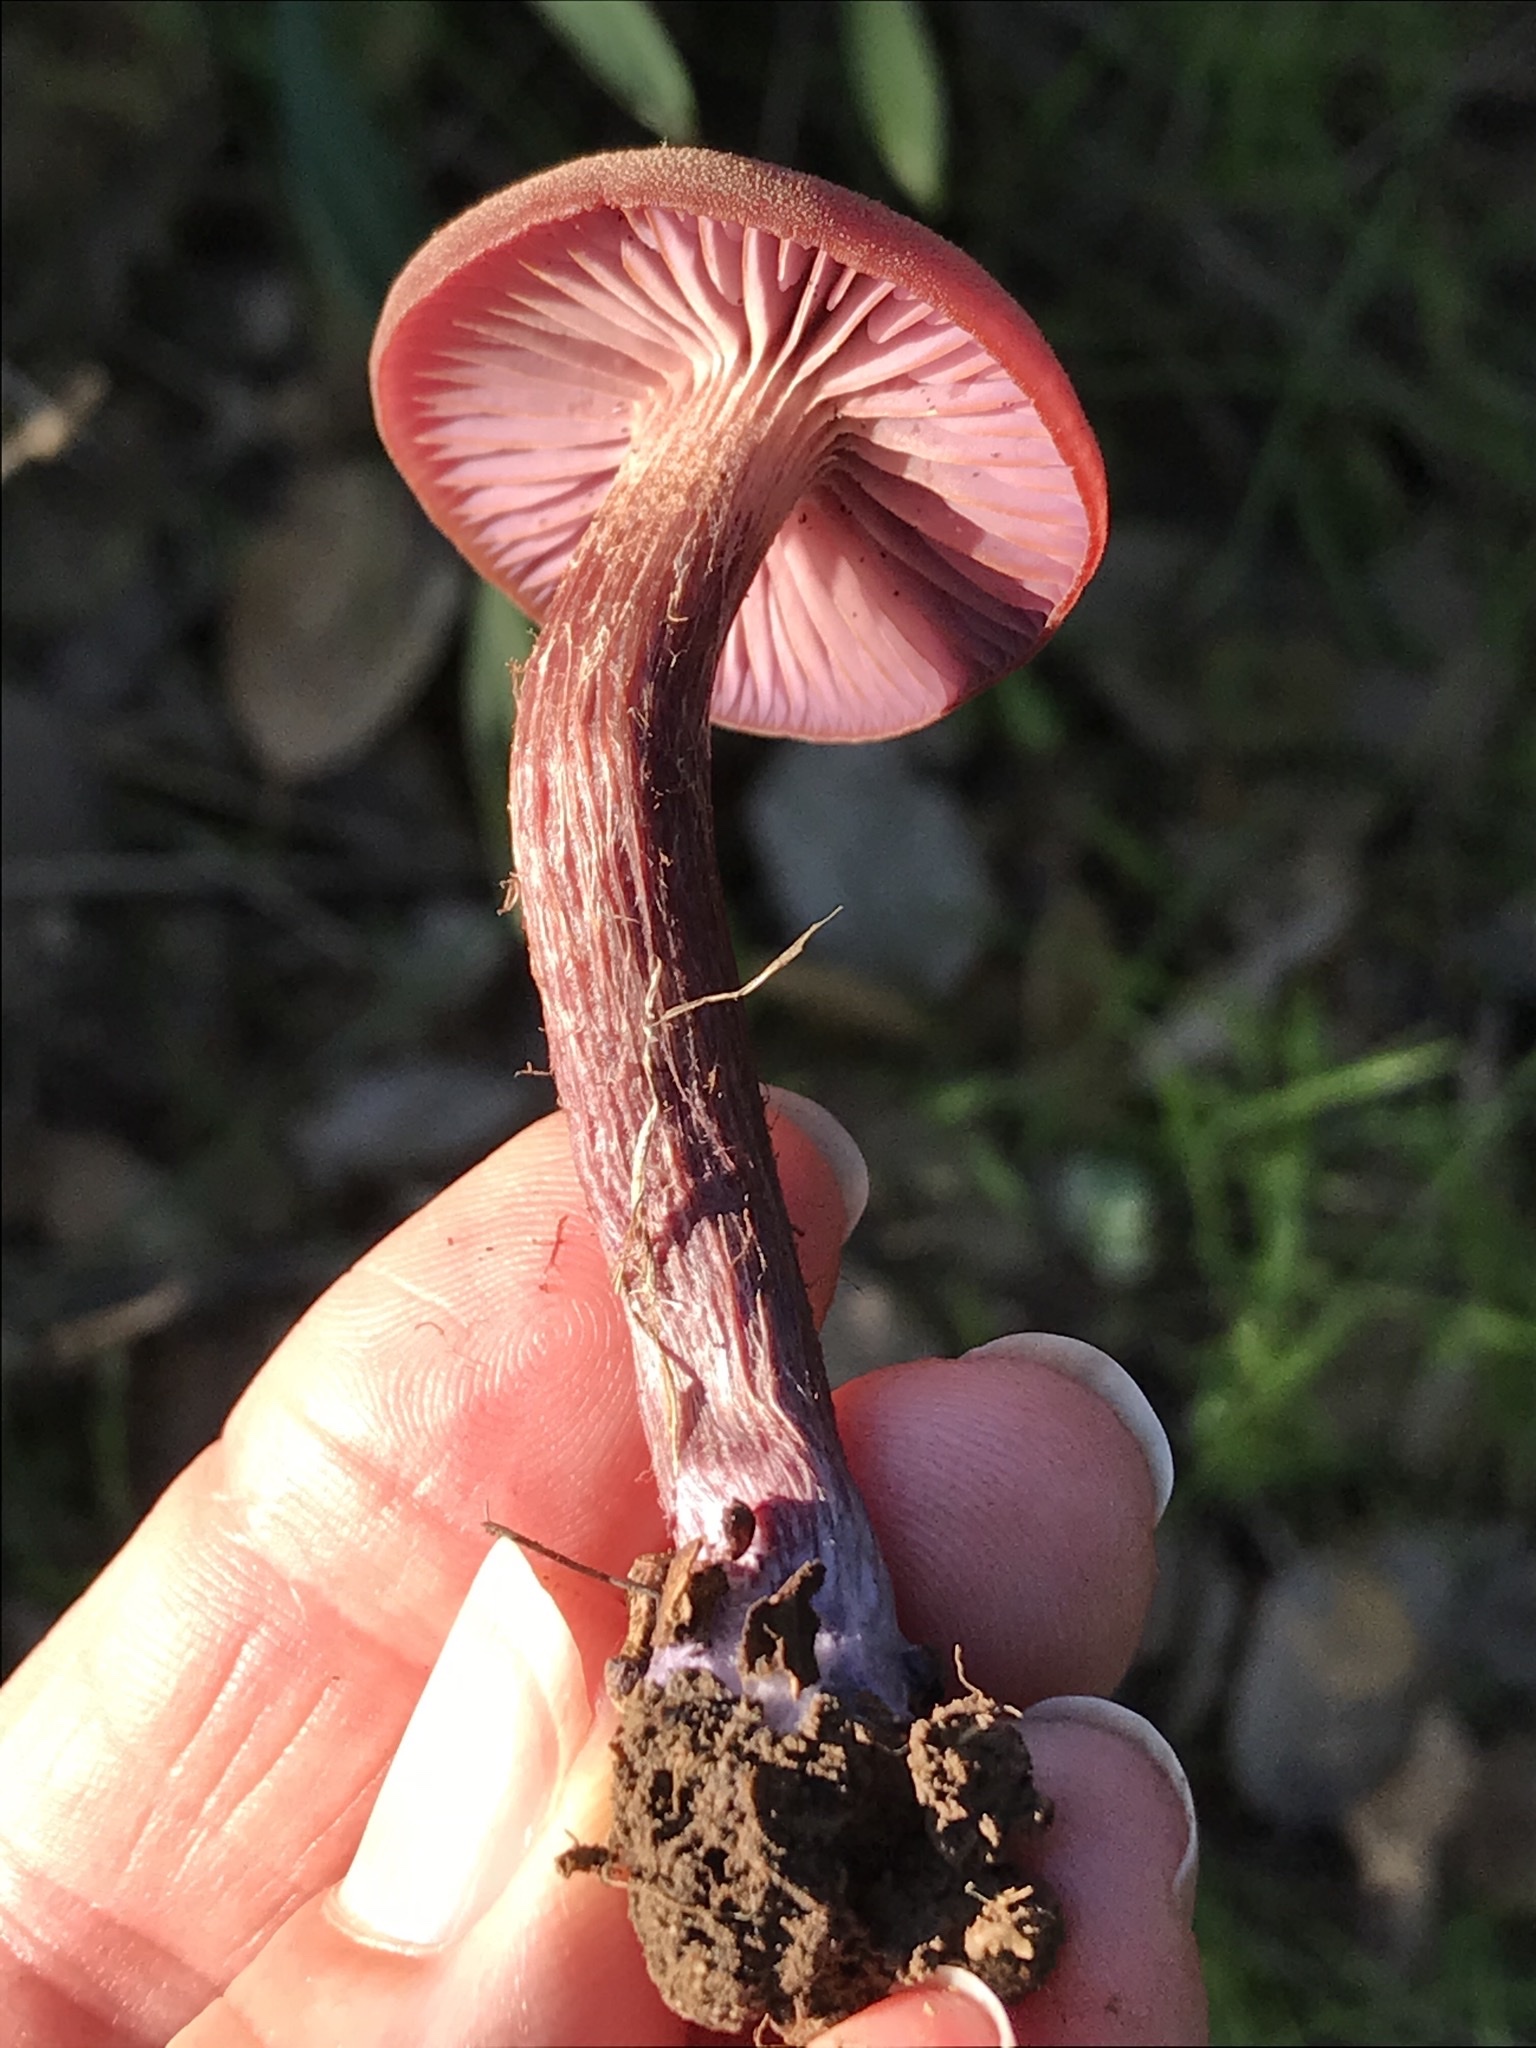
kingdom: Fungi
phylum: Basidiomycota
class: Agaricomycetes
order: Agaricales
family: Hydnangiaceae
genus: Laccaria
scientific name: Laccaria amethysteo-occidentalis
